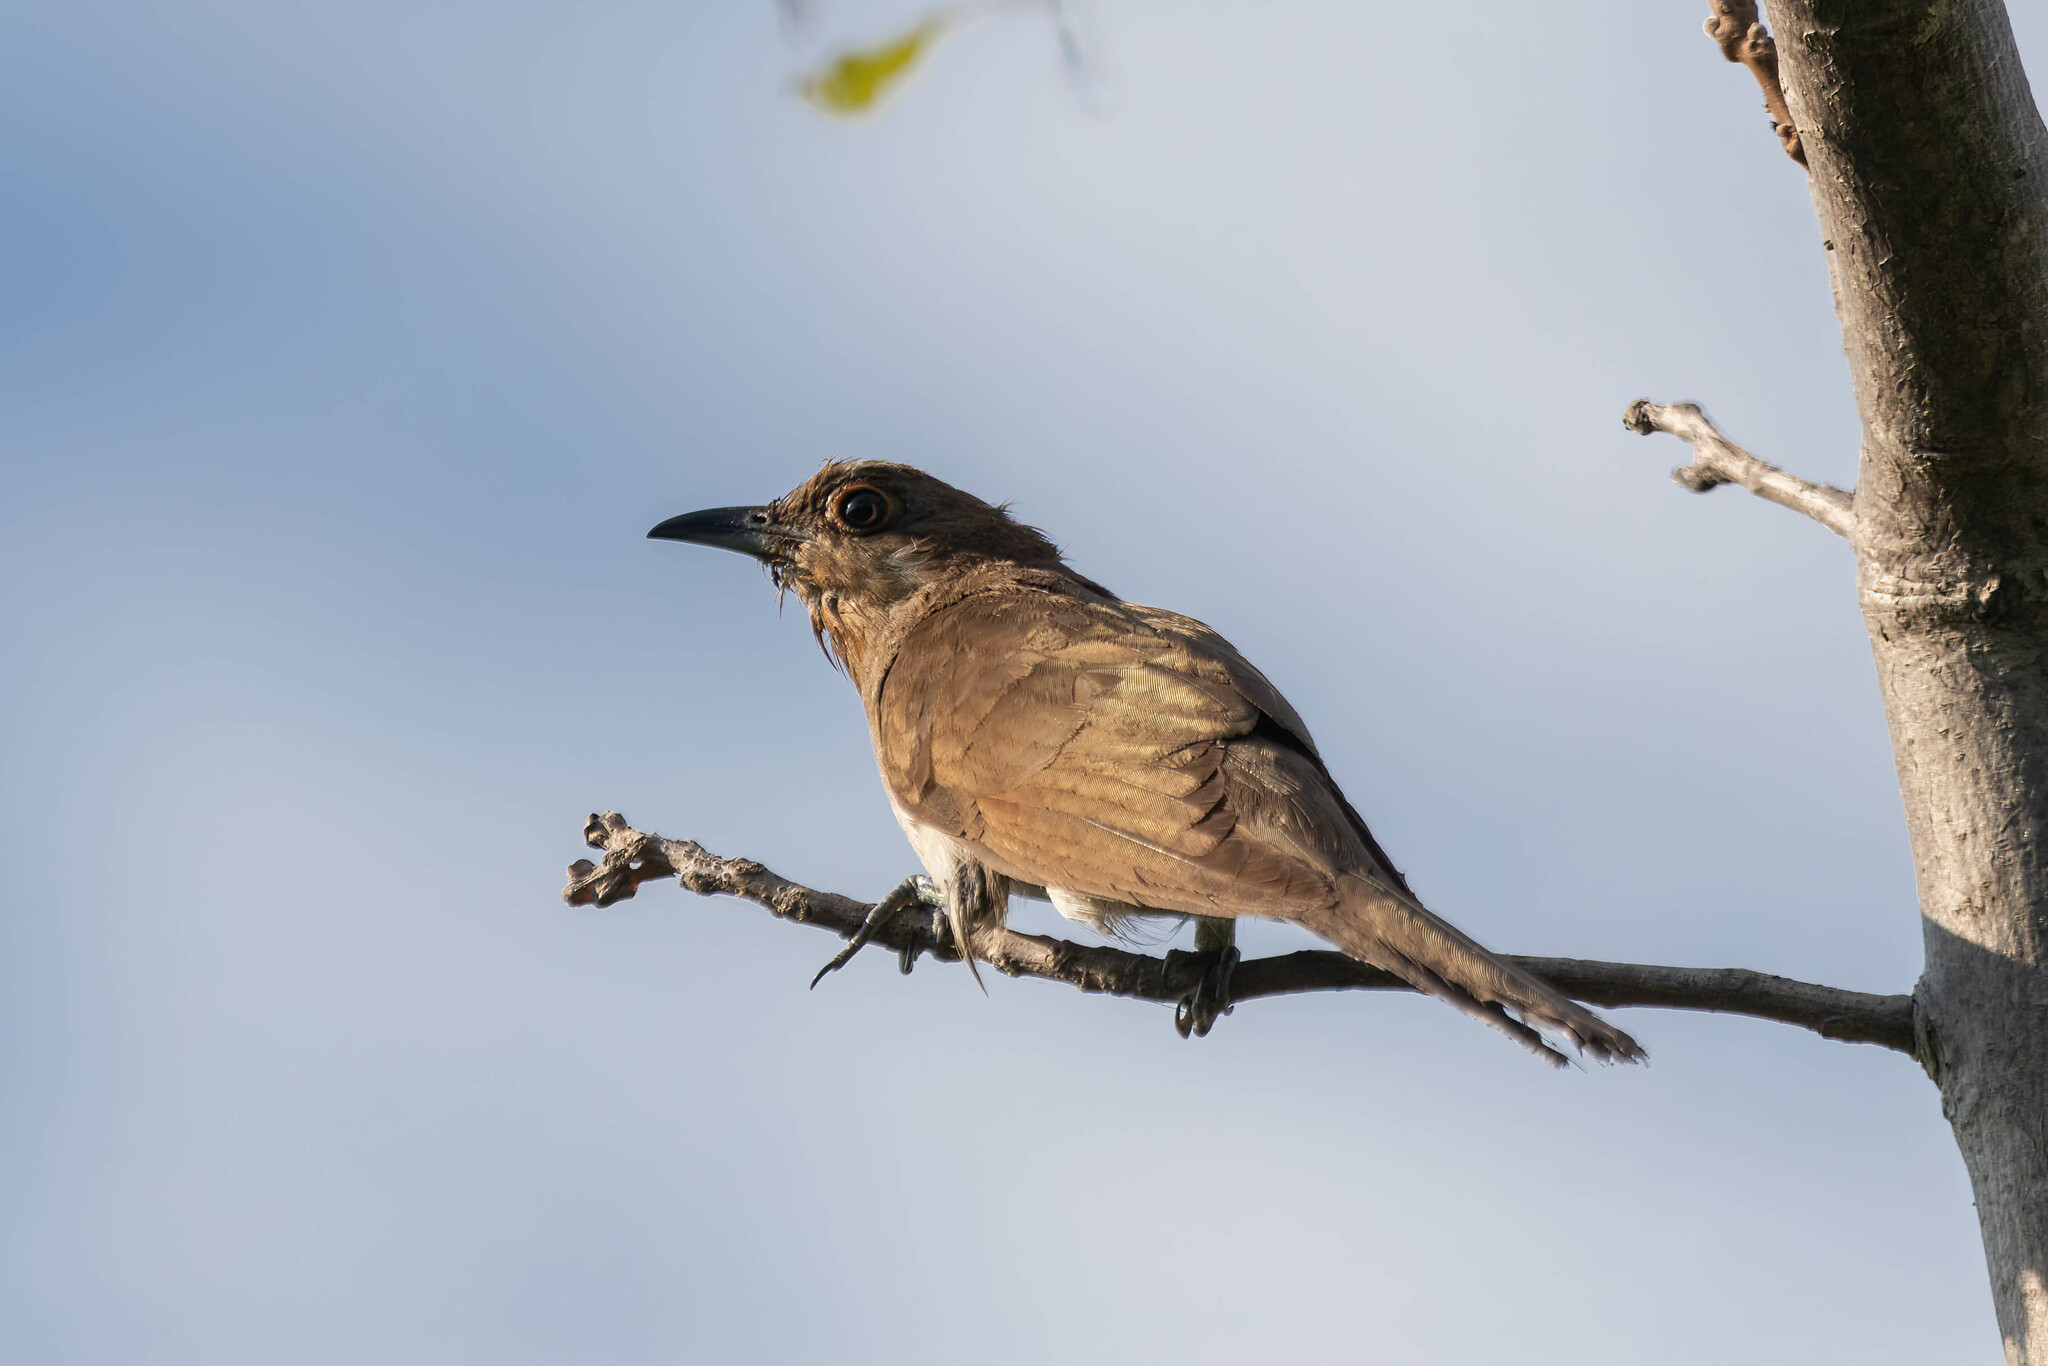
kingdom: Animalia
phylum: Chordata
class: Aves
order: Cuculiformes
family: Cuculidae
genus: Coccyzus
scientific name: Coccyzus erythropthalmus
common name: Black-billed cuckoo
